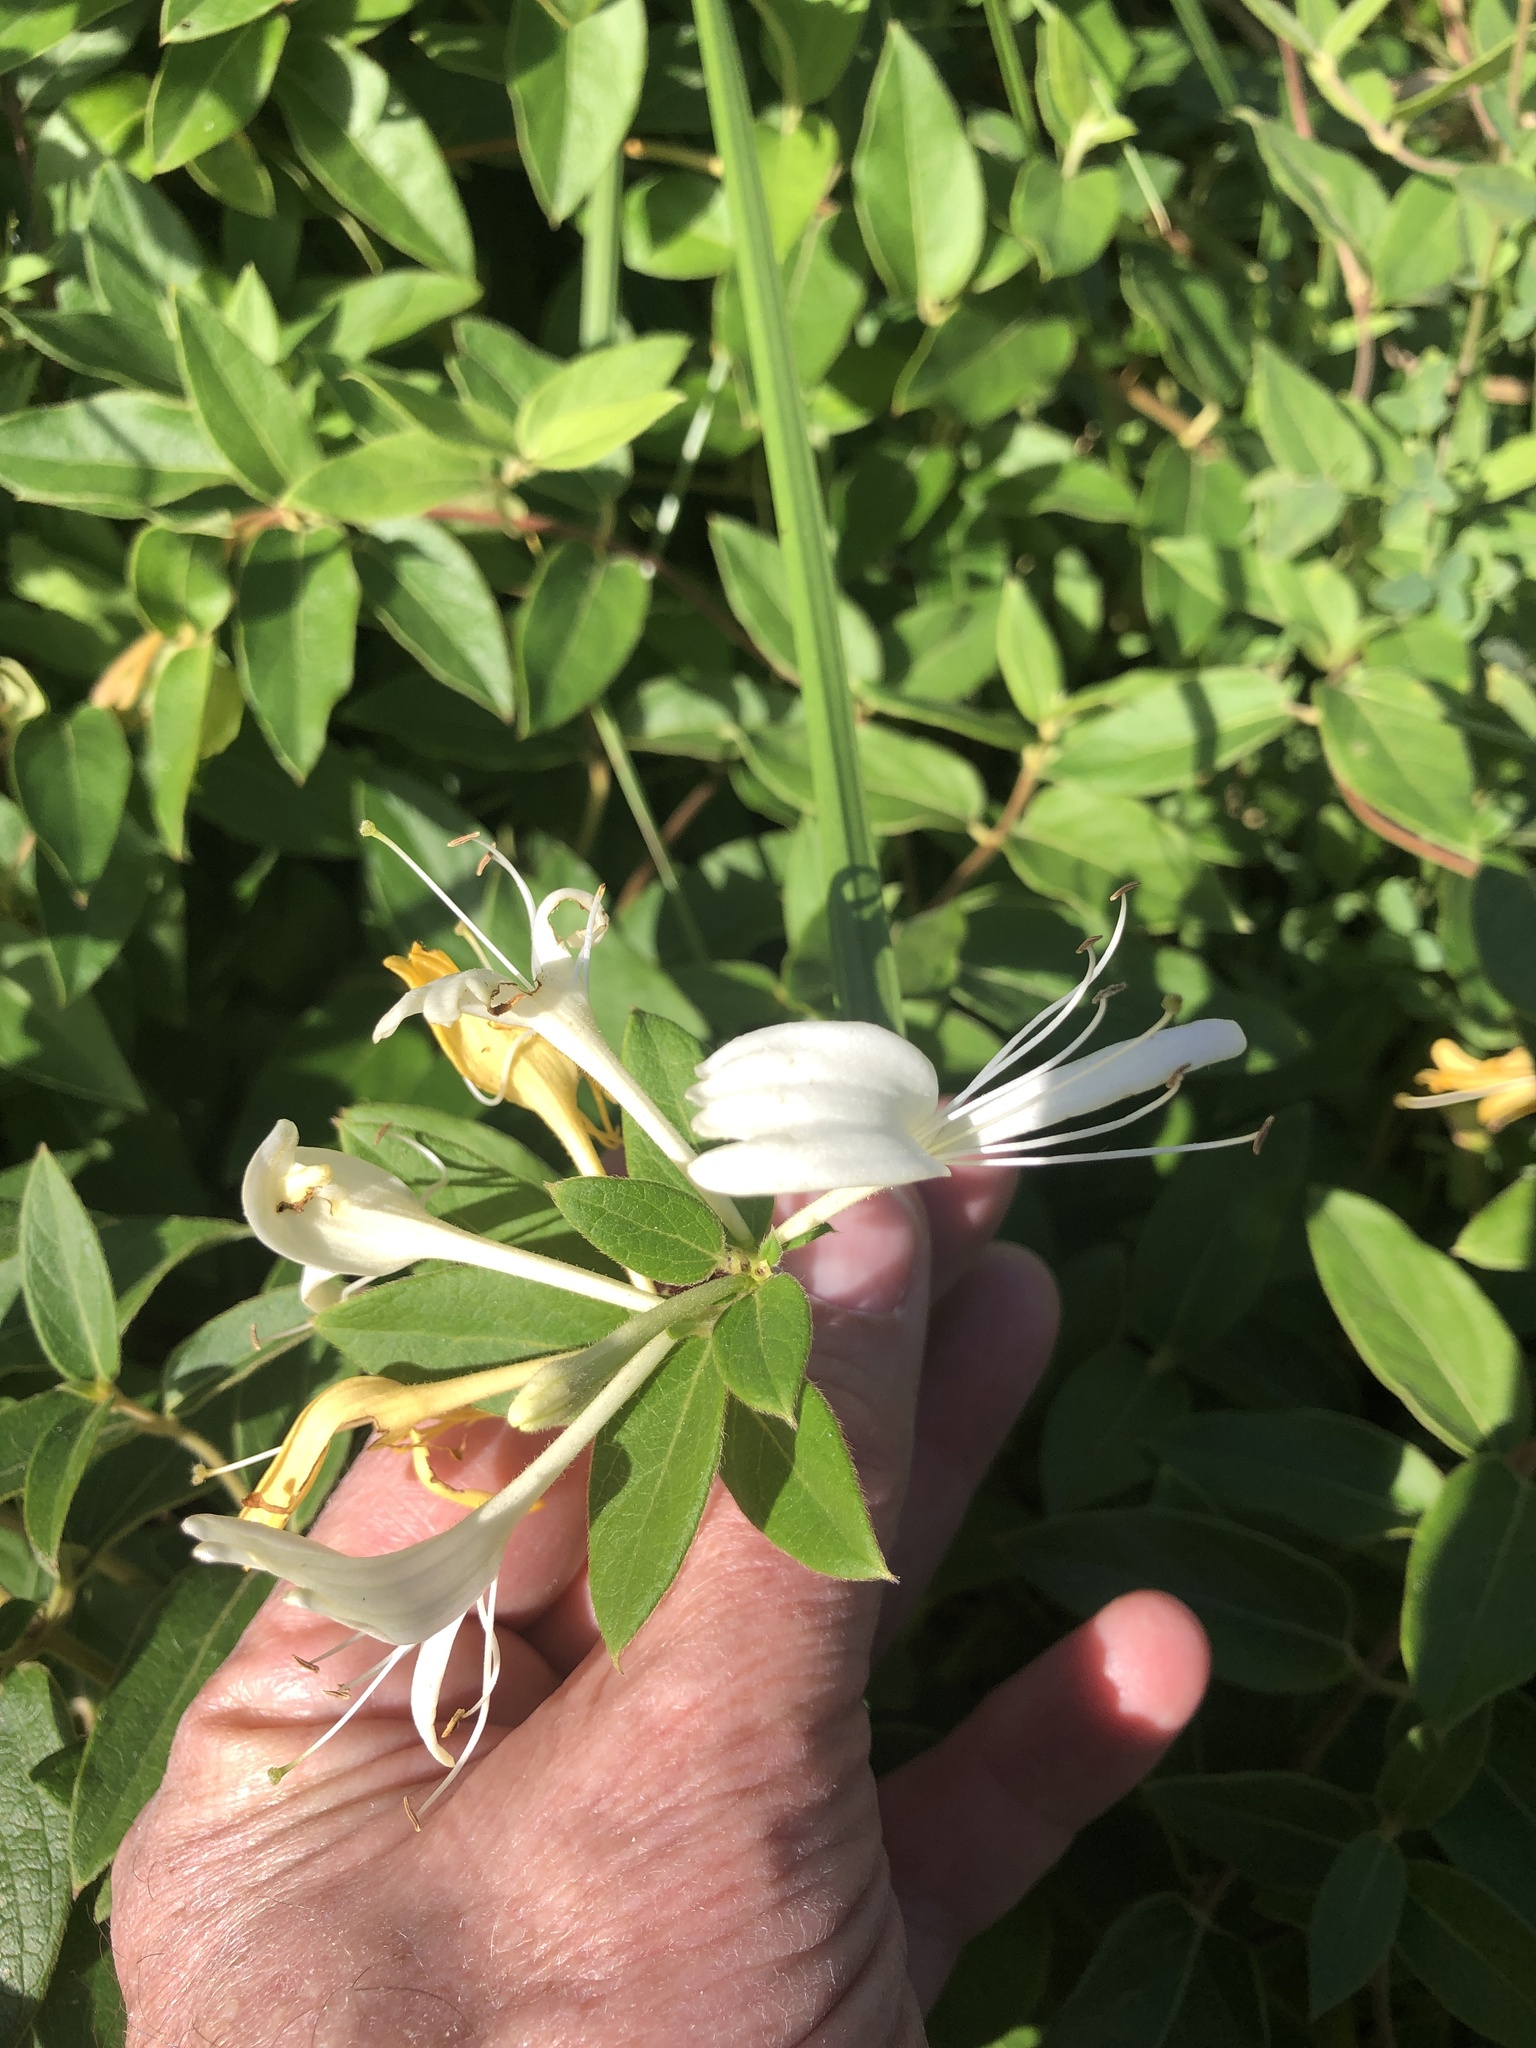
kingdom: Plantae
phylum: Tracheophyta
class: Magnoliopsida
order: Dipsacales
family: Caprifoliaceae
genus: Lonicera
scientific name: Lonicera japonica
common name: Japanese honeysuckle
